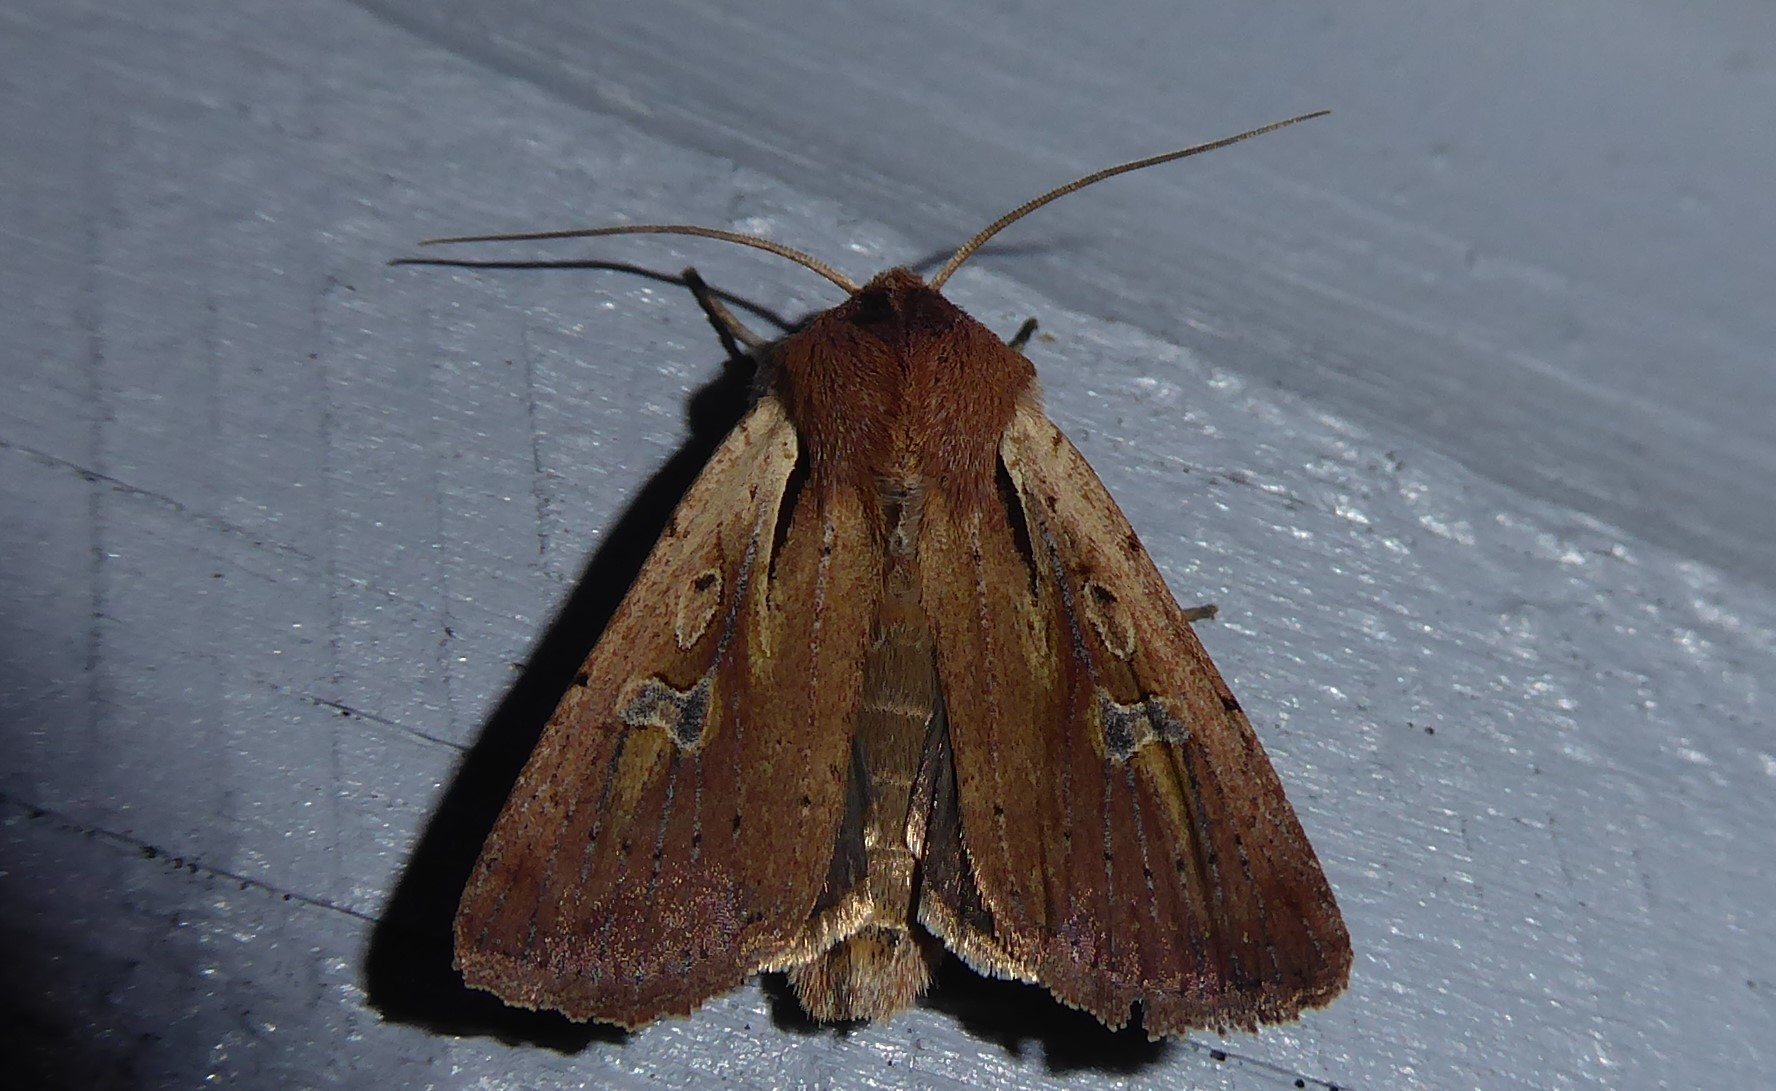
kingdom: Animalia
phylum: Arthropoda
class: Insecta
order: Lepidoptera
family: Noctuidae
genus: Ichneutica
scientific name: Ichneutica atristriga
